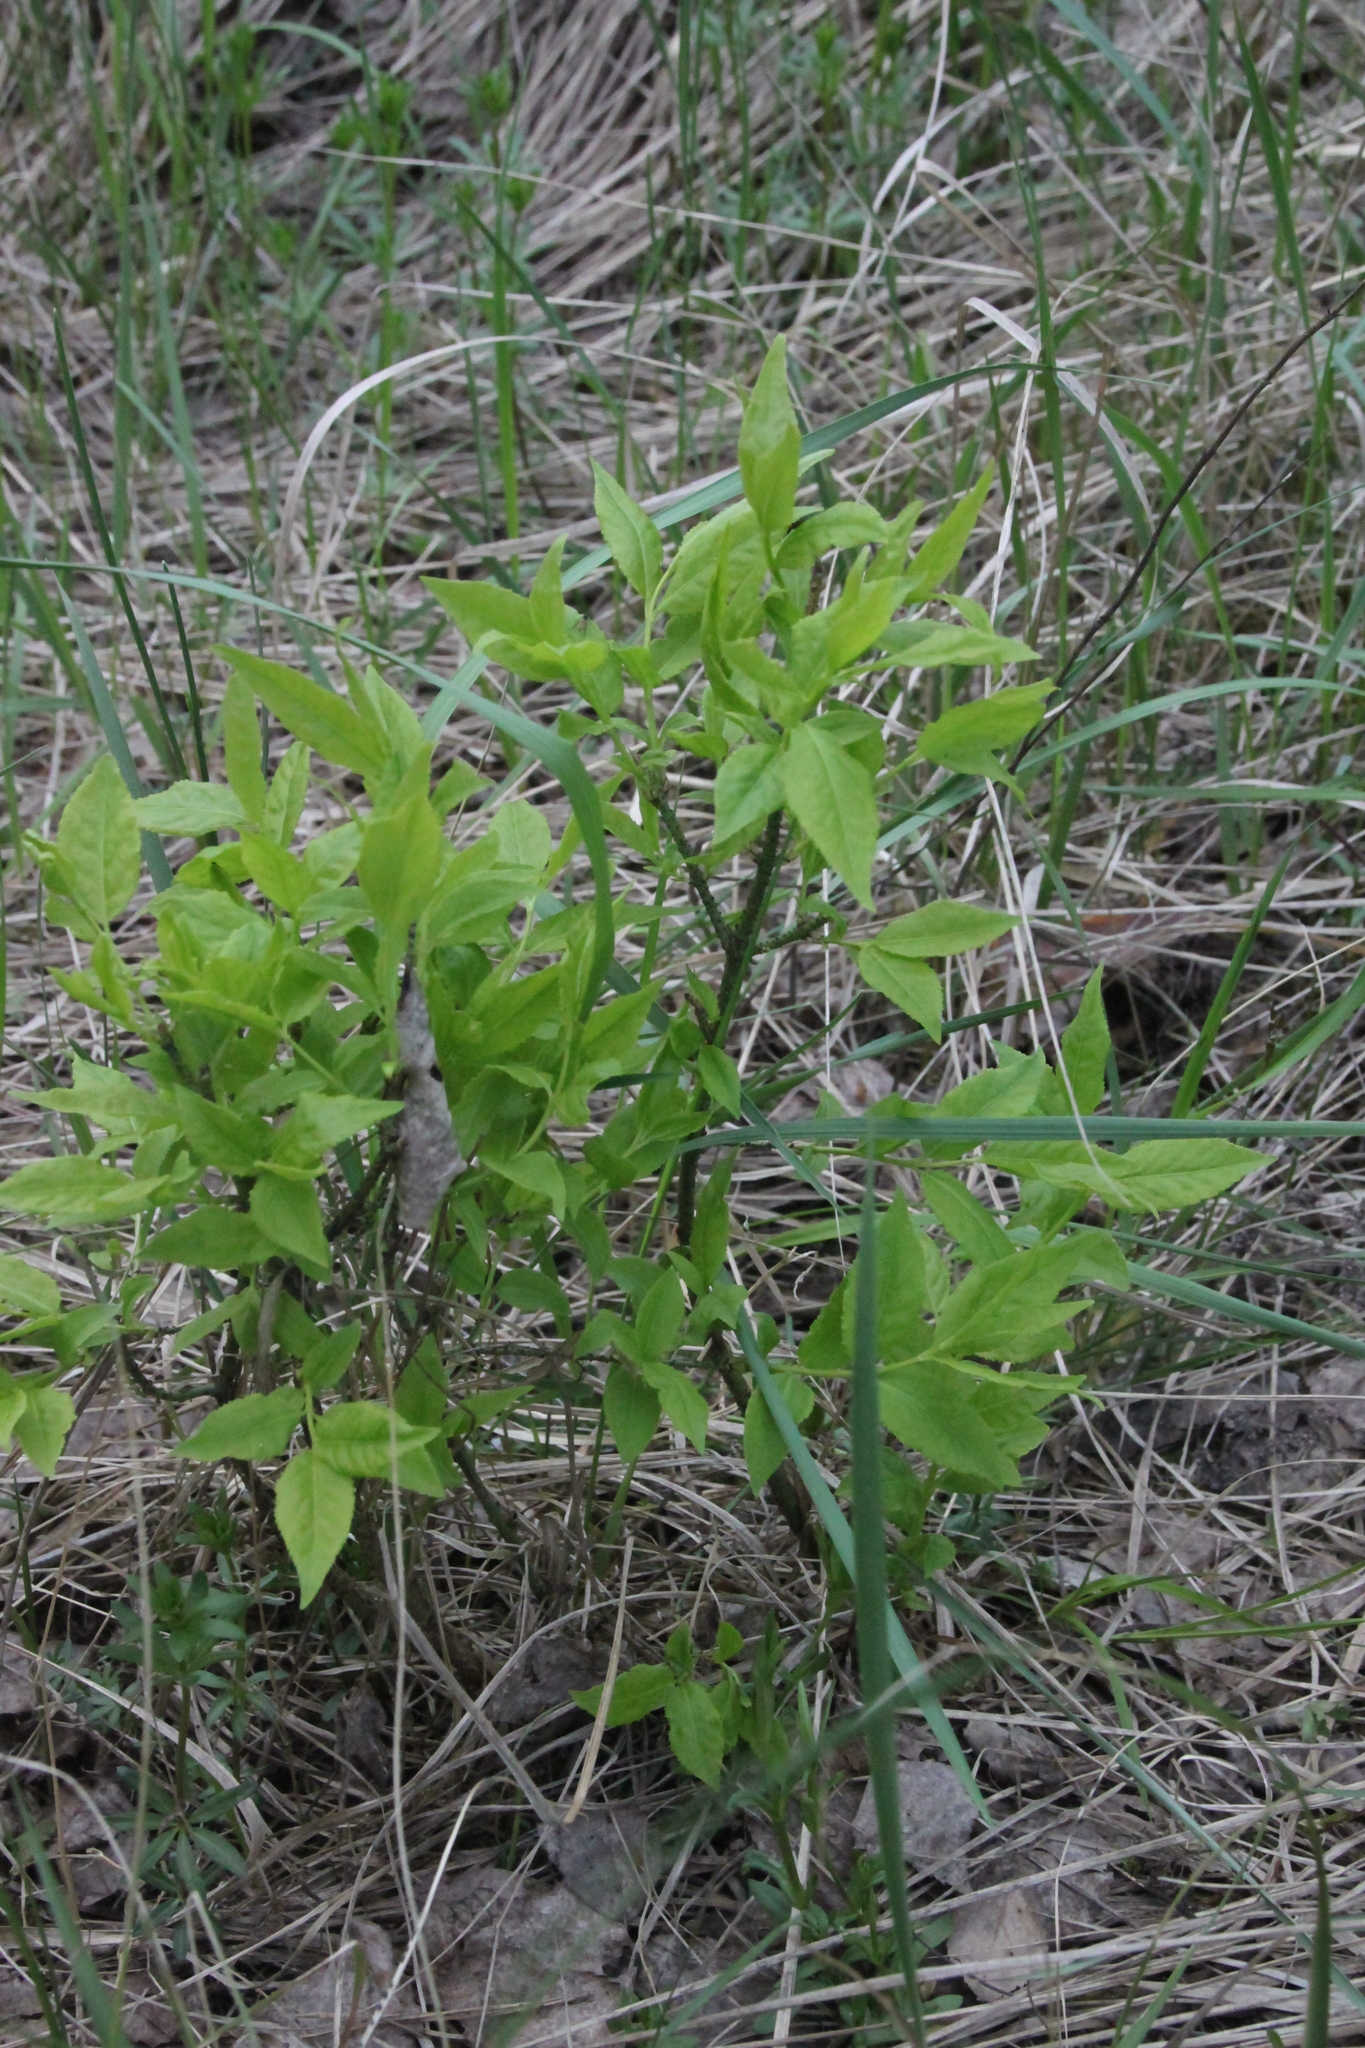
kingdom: Plantae
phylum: Tracheophyta
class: Magnoliopsida
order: Celastrales
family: Celastraceae
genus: Euonymus
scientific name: Euonymus verrucosus
